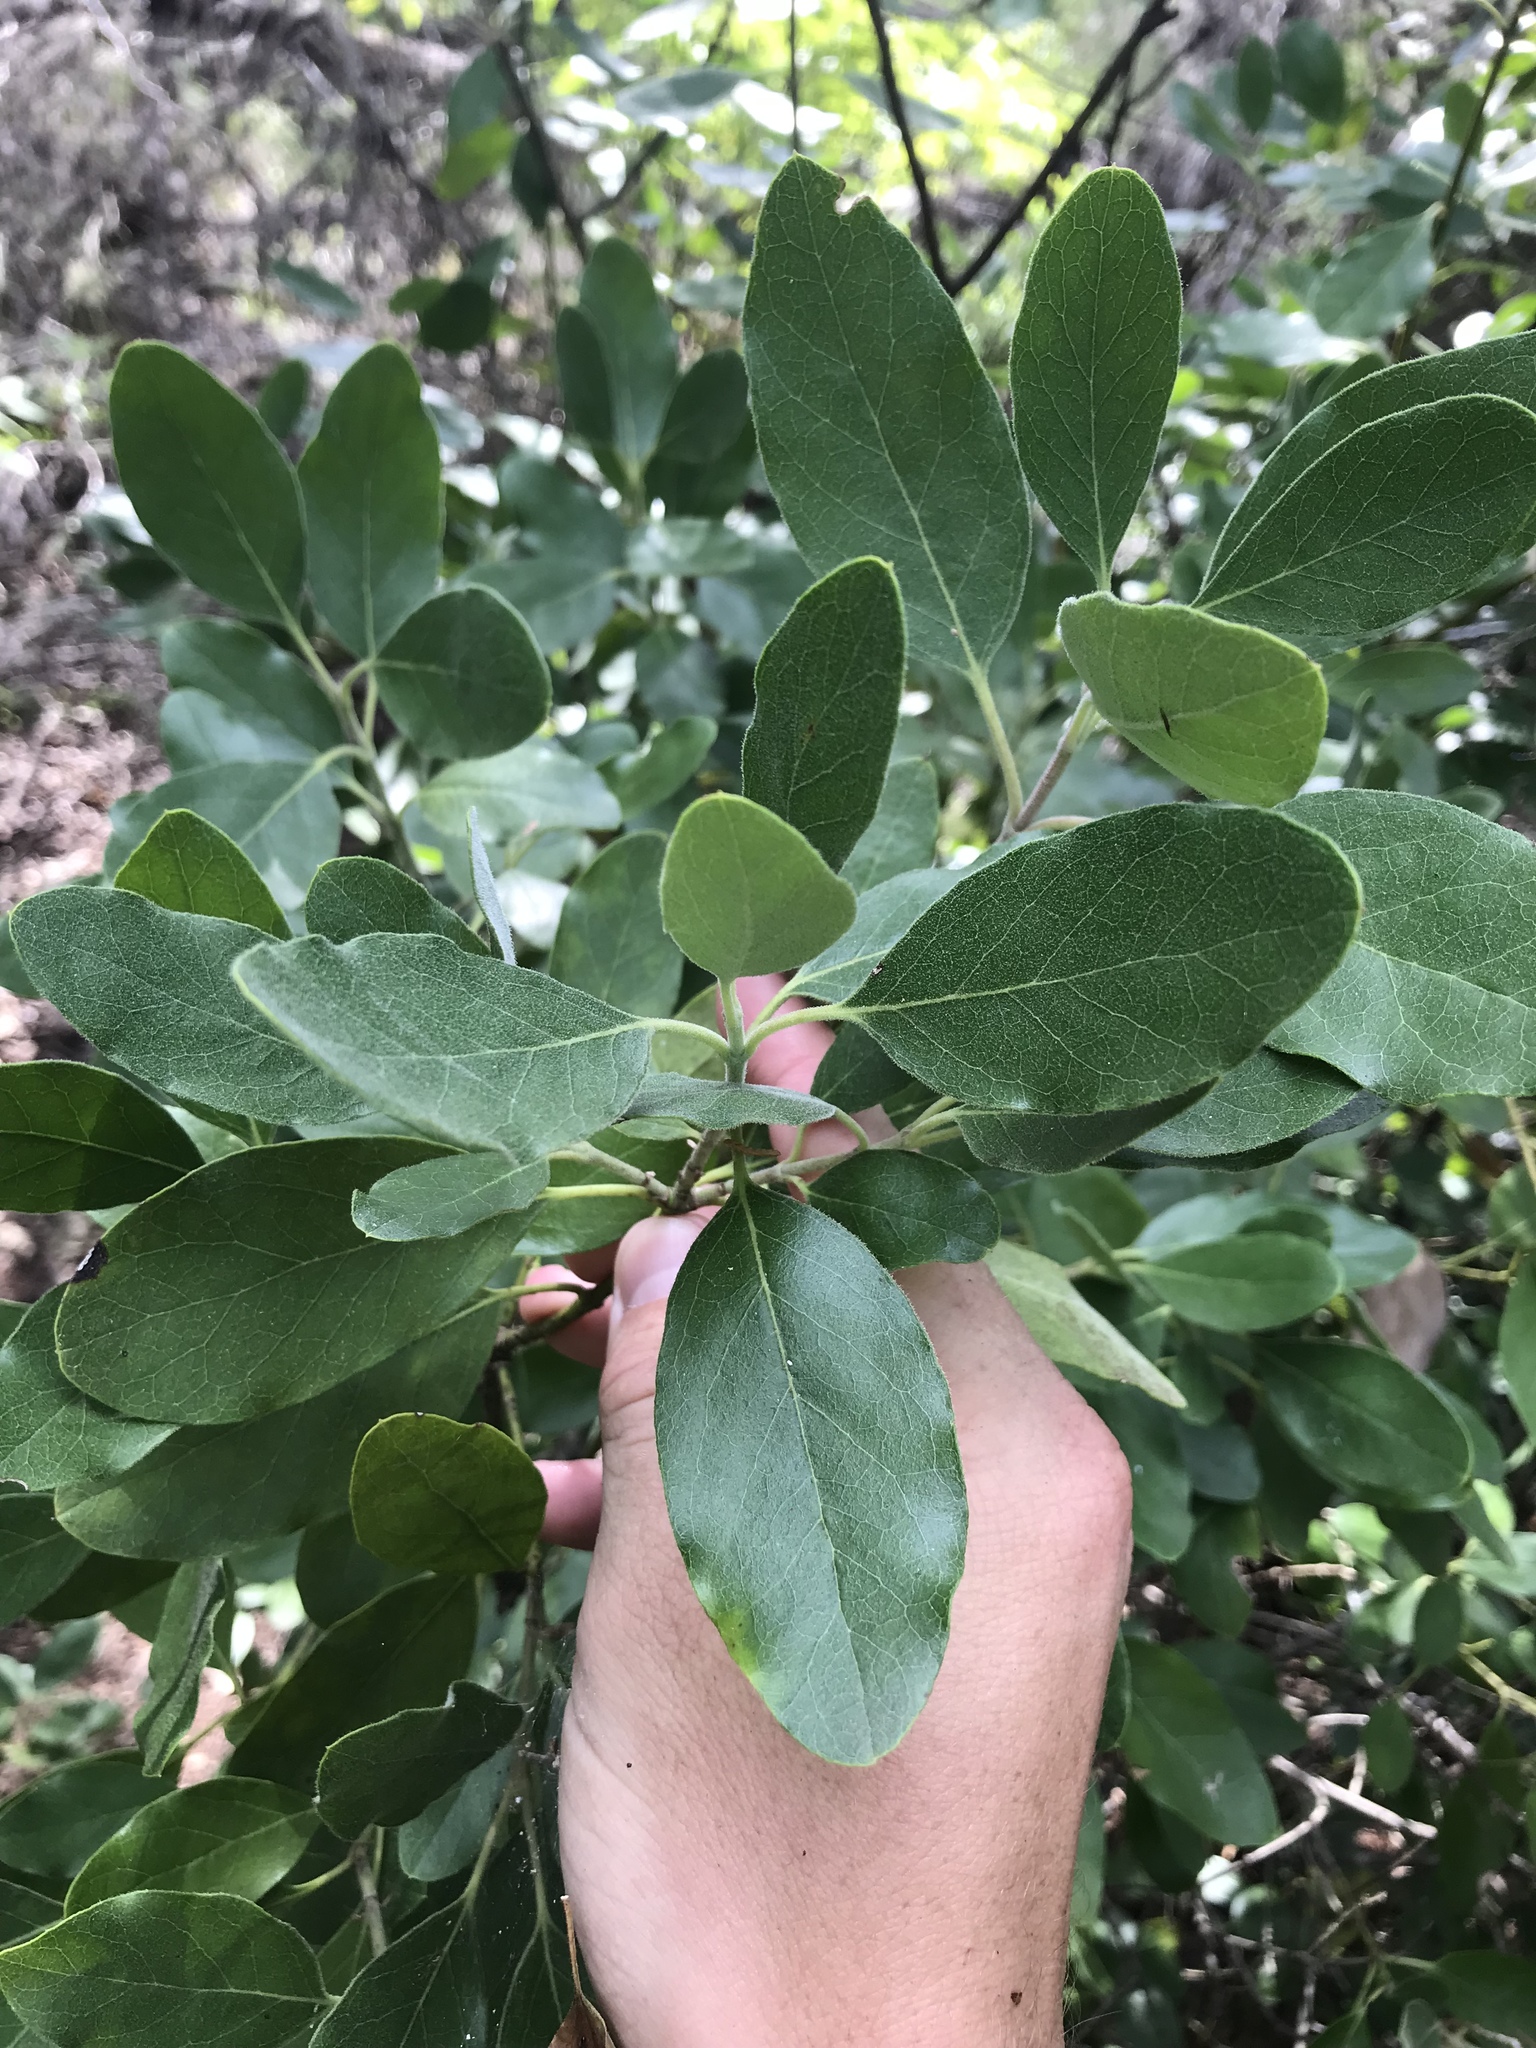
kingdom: Plantae
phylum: Tracheophyta
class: Magnoliopsida
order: Garryales
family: Garryaceae
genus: Garrya
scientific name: Garrya lindheimeri
